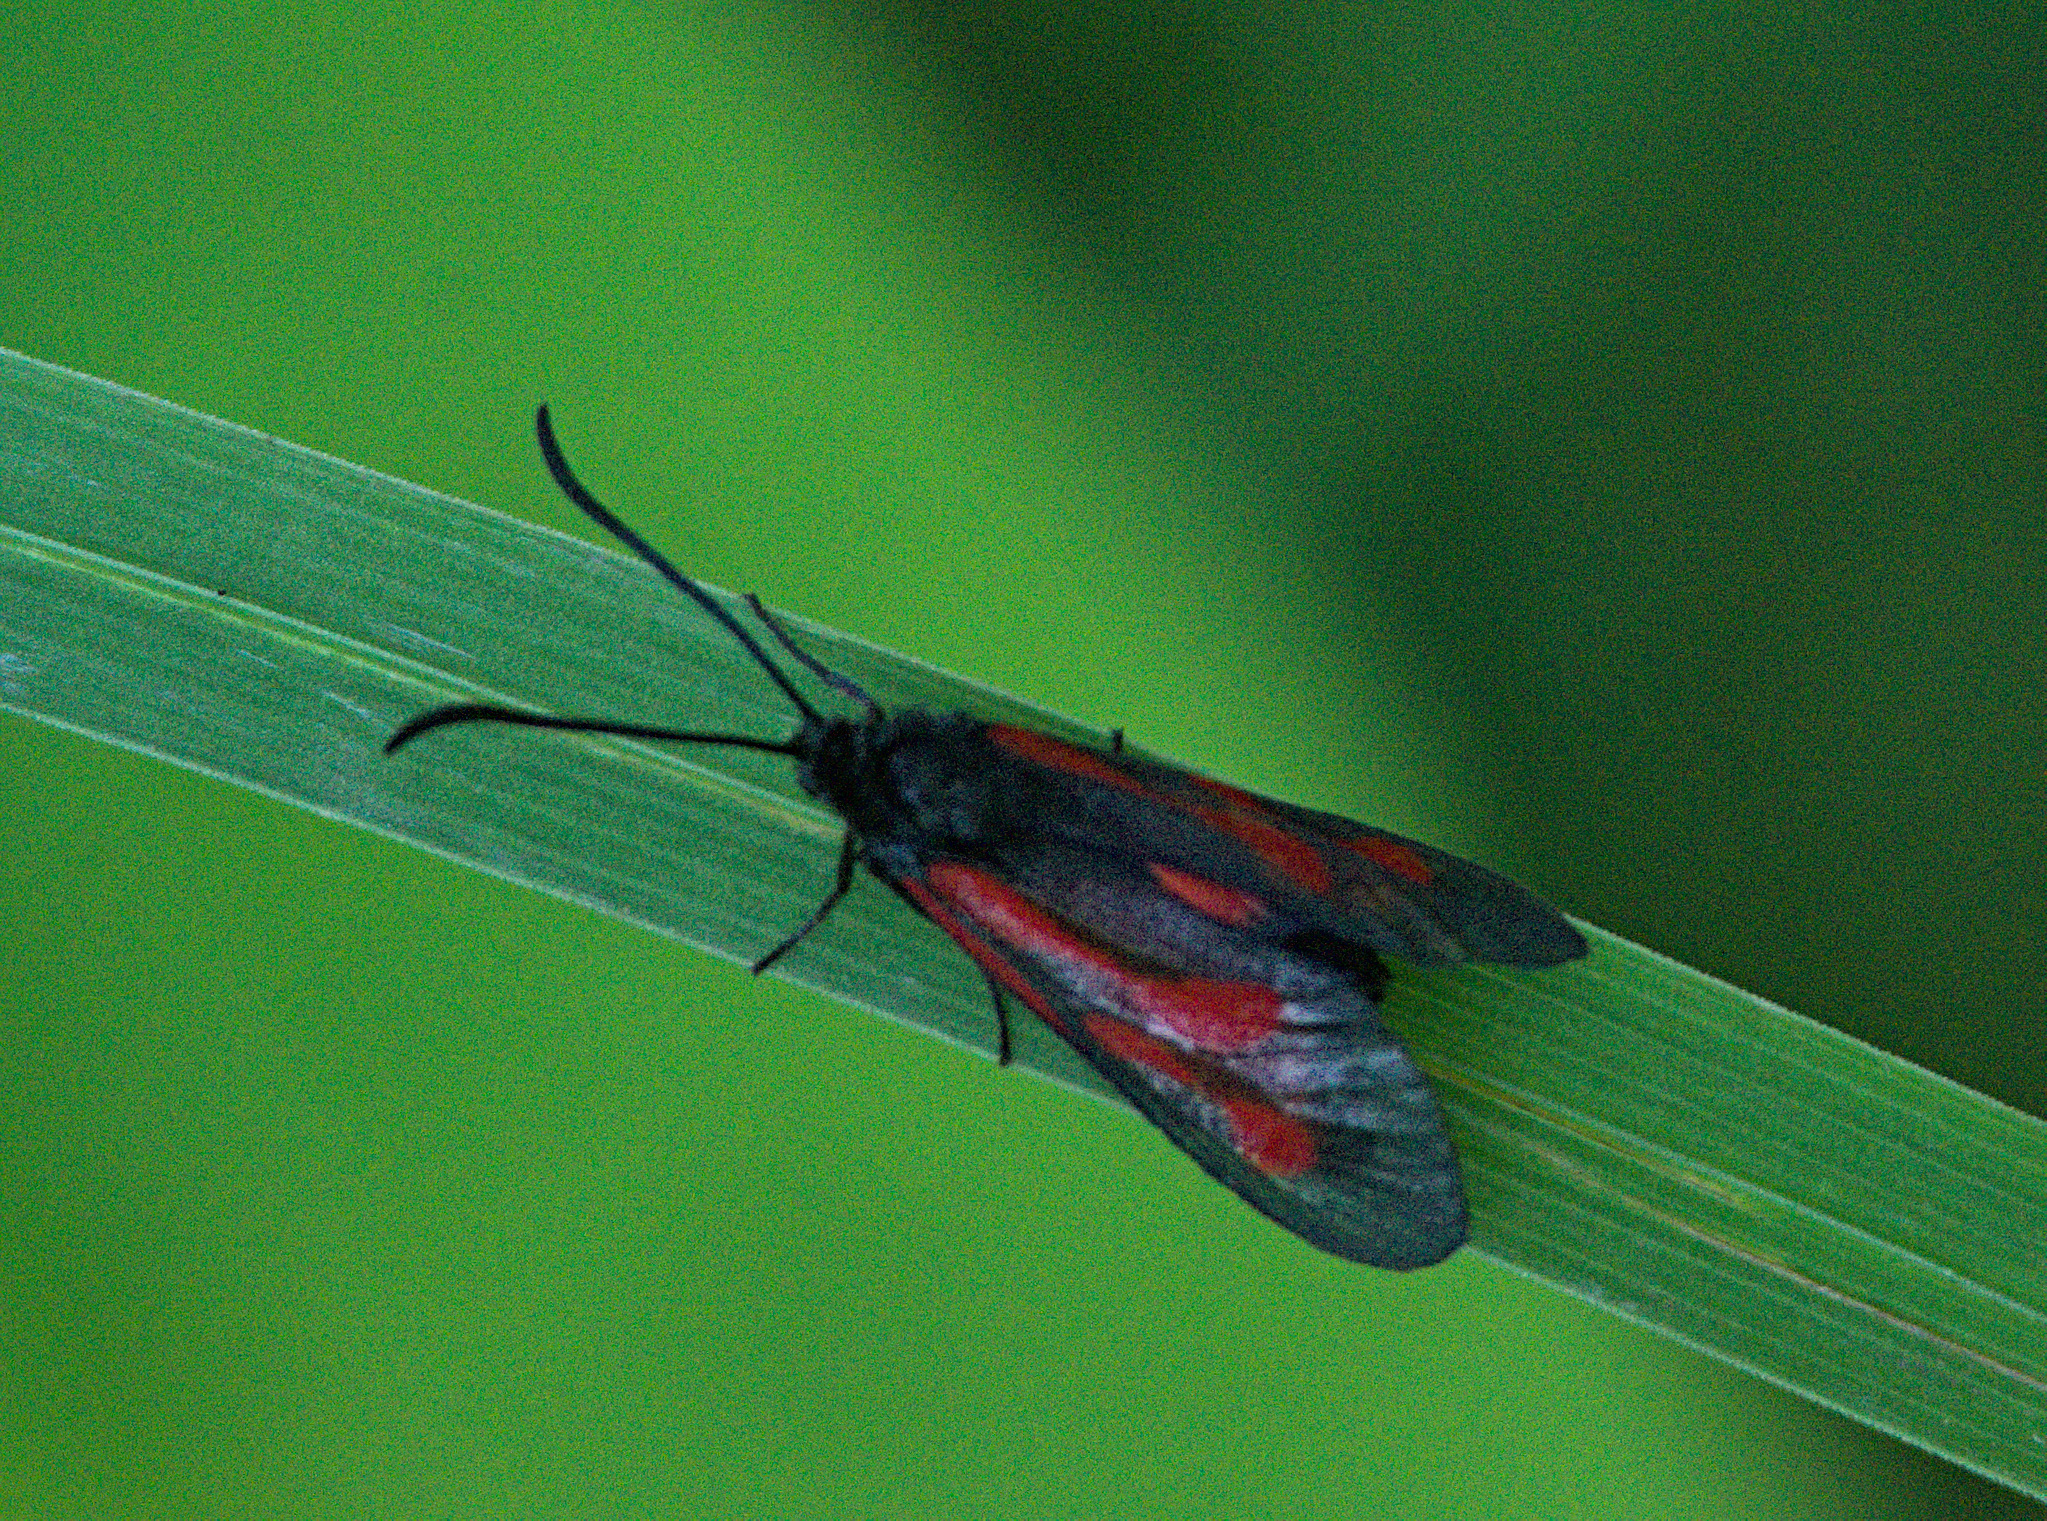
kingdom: Animalia
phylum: Arthropoda
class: Insecta
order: Lepidoptera
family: Zygaenidae
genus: Zygaena
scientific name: Zygaena osterodensis
